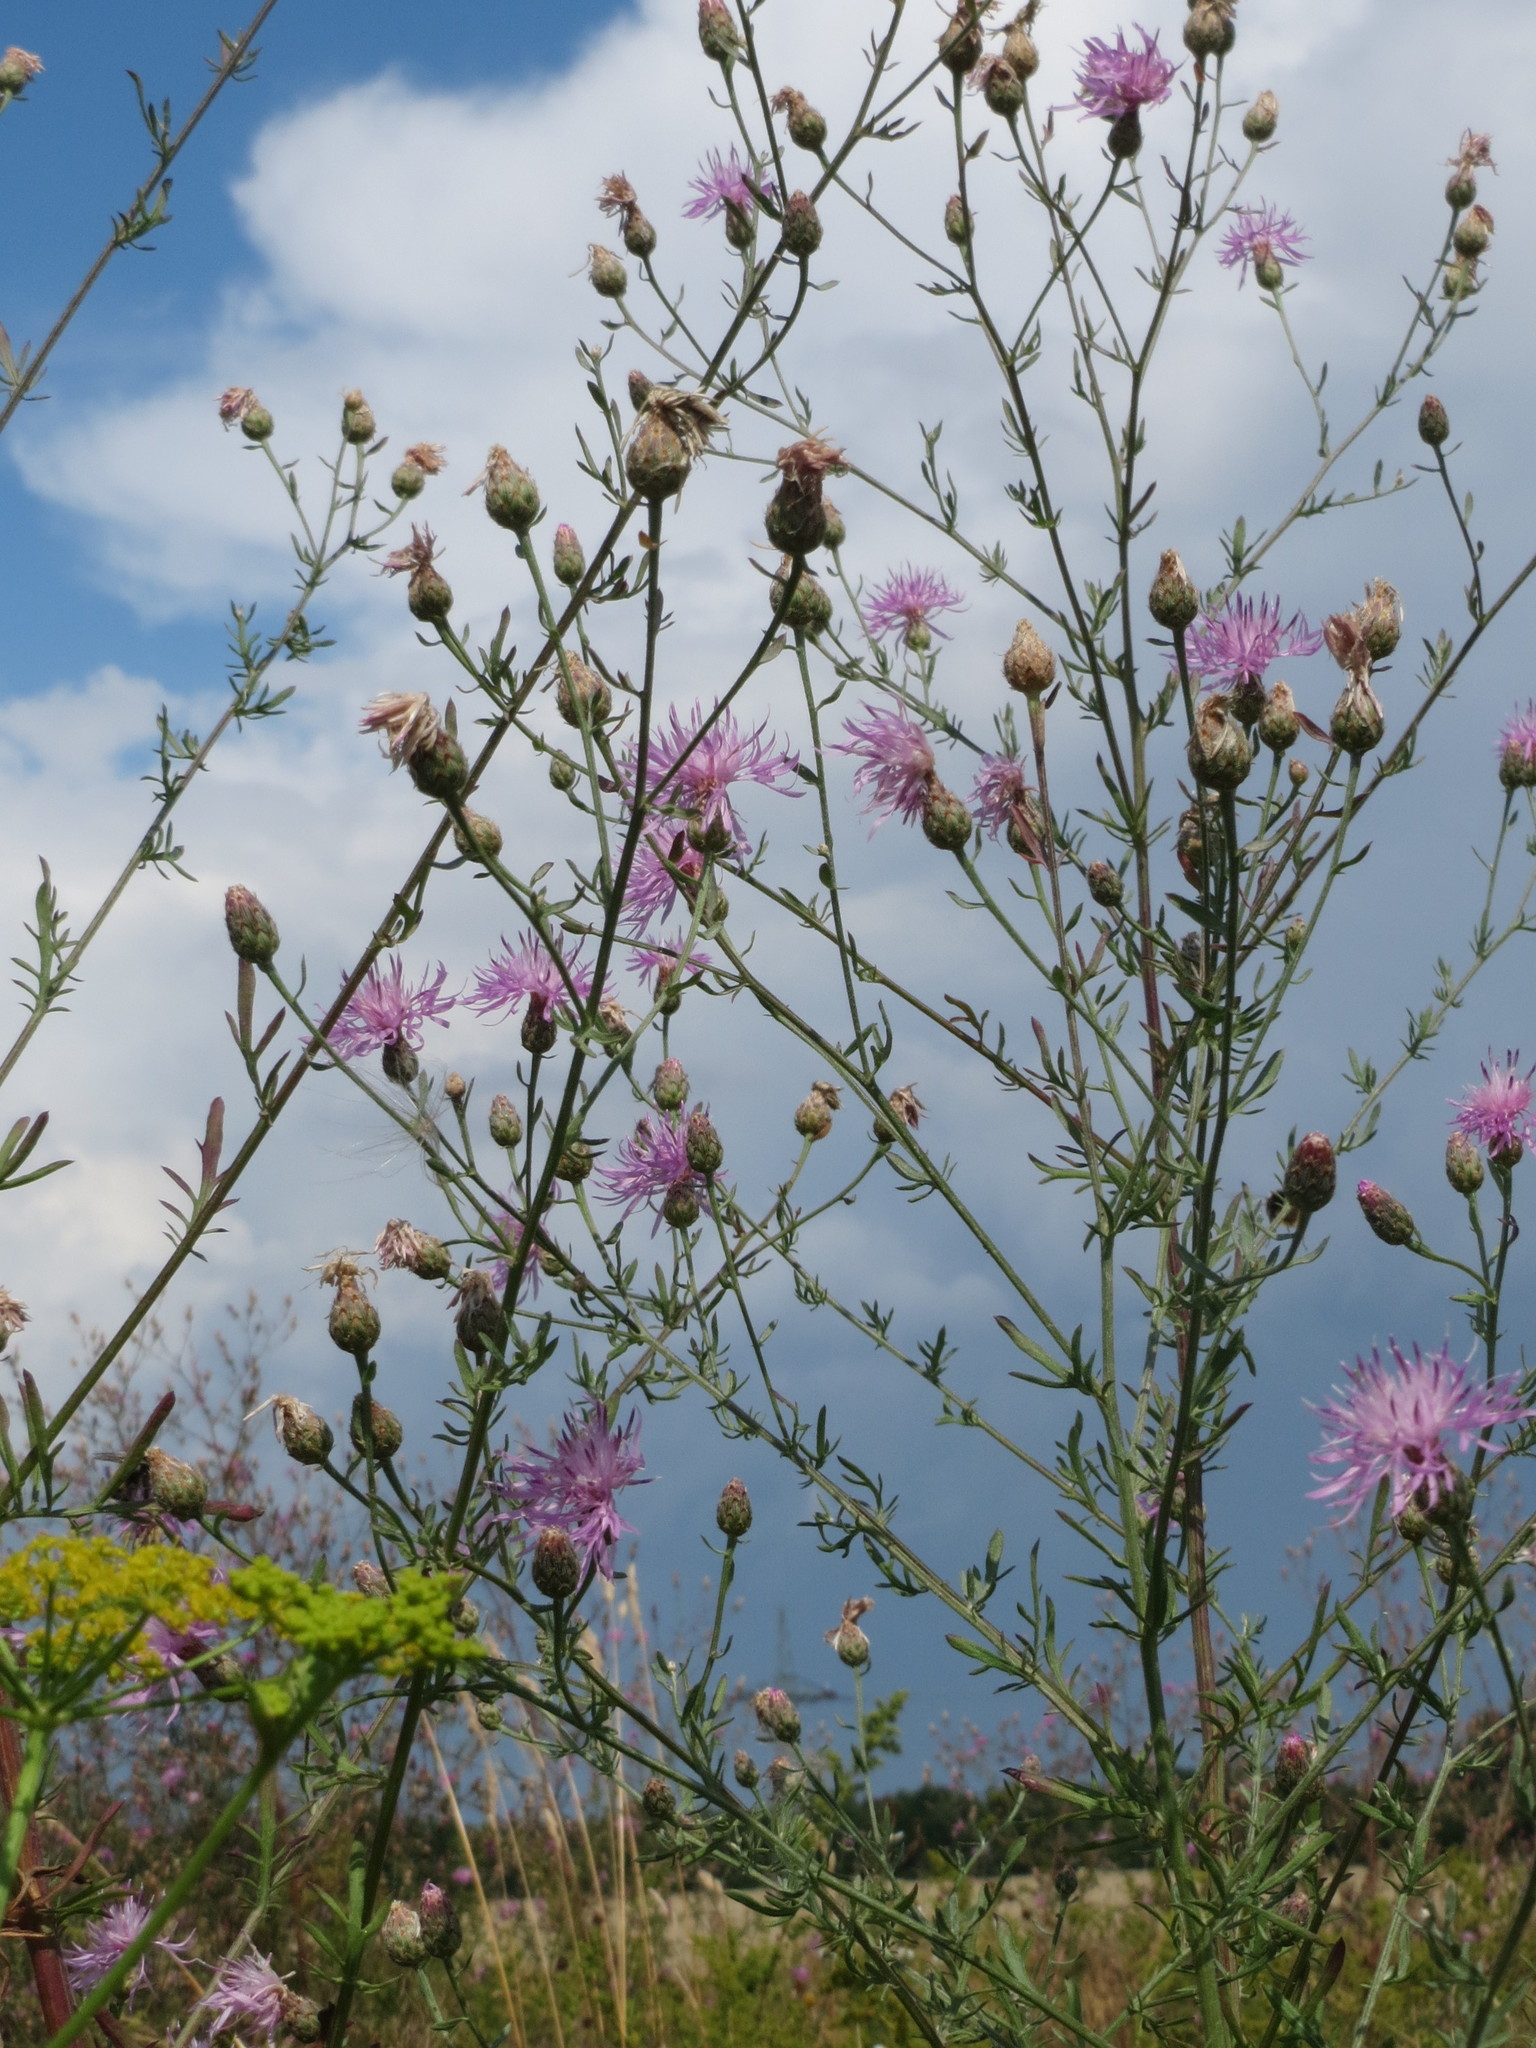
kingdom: Plantae
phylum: Tracheophyta
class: Magnoliopsida
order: Asterales
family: Asteraceae
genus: Centaurea
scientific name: Centaurea stoebe
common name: Spotted knapweed
